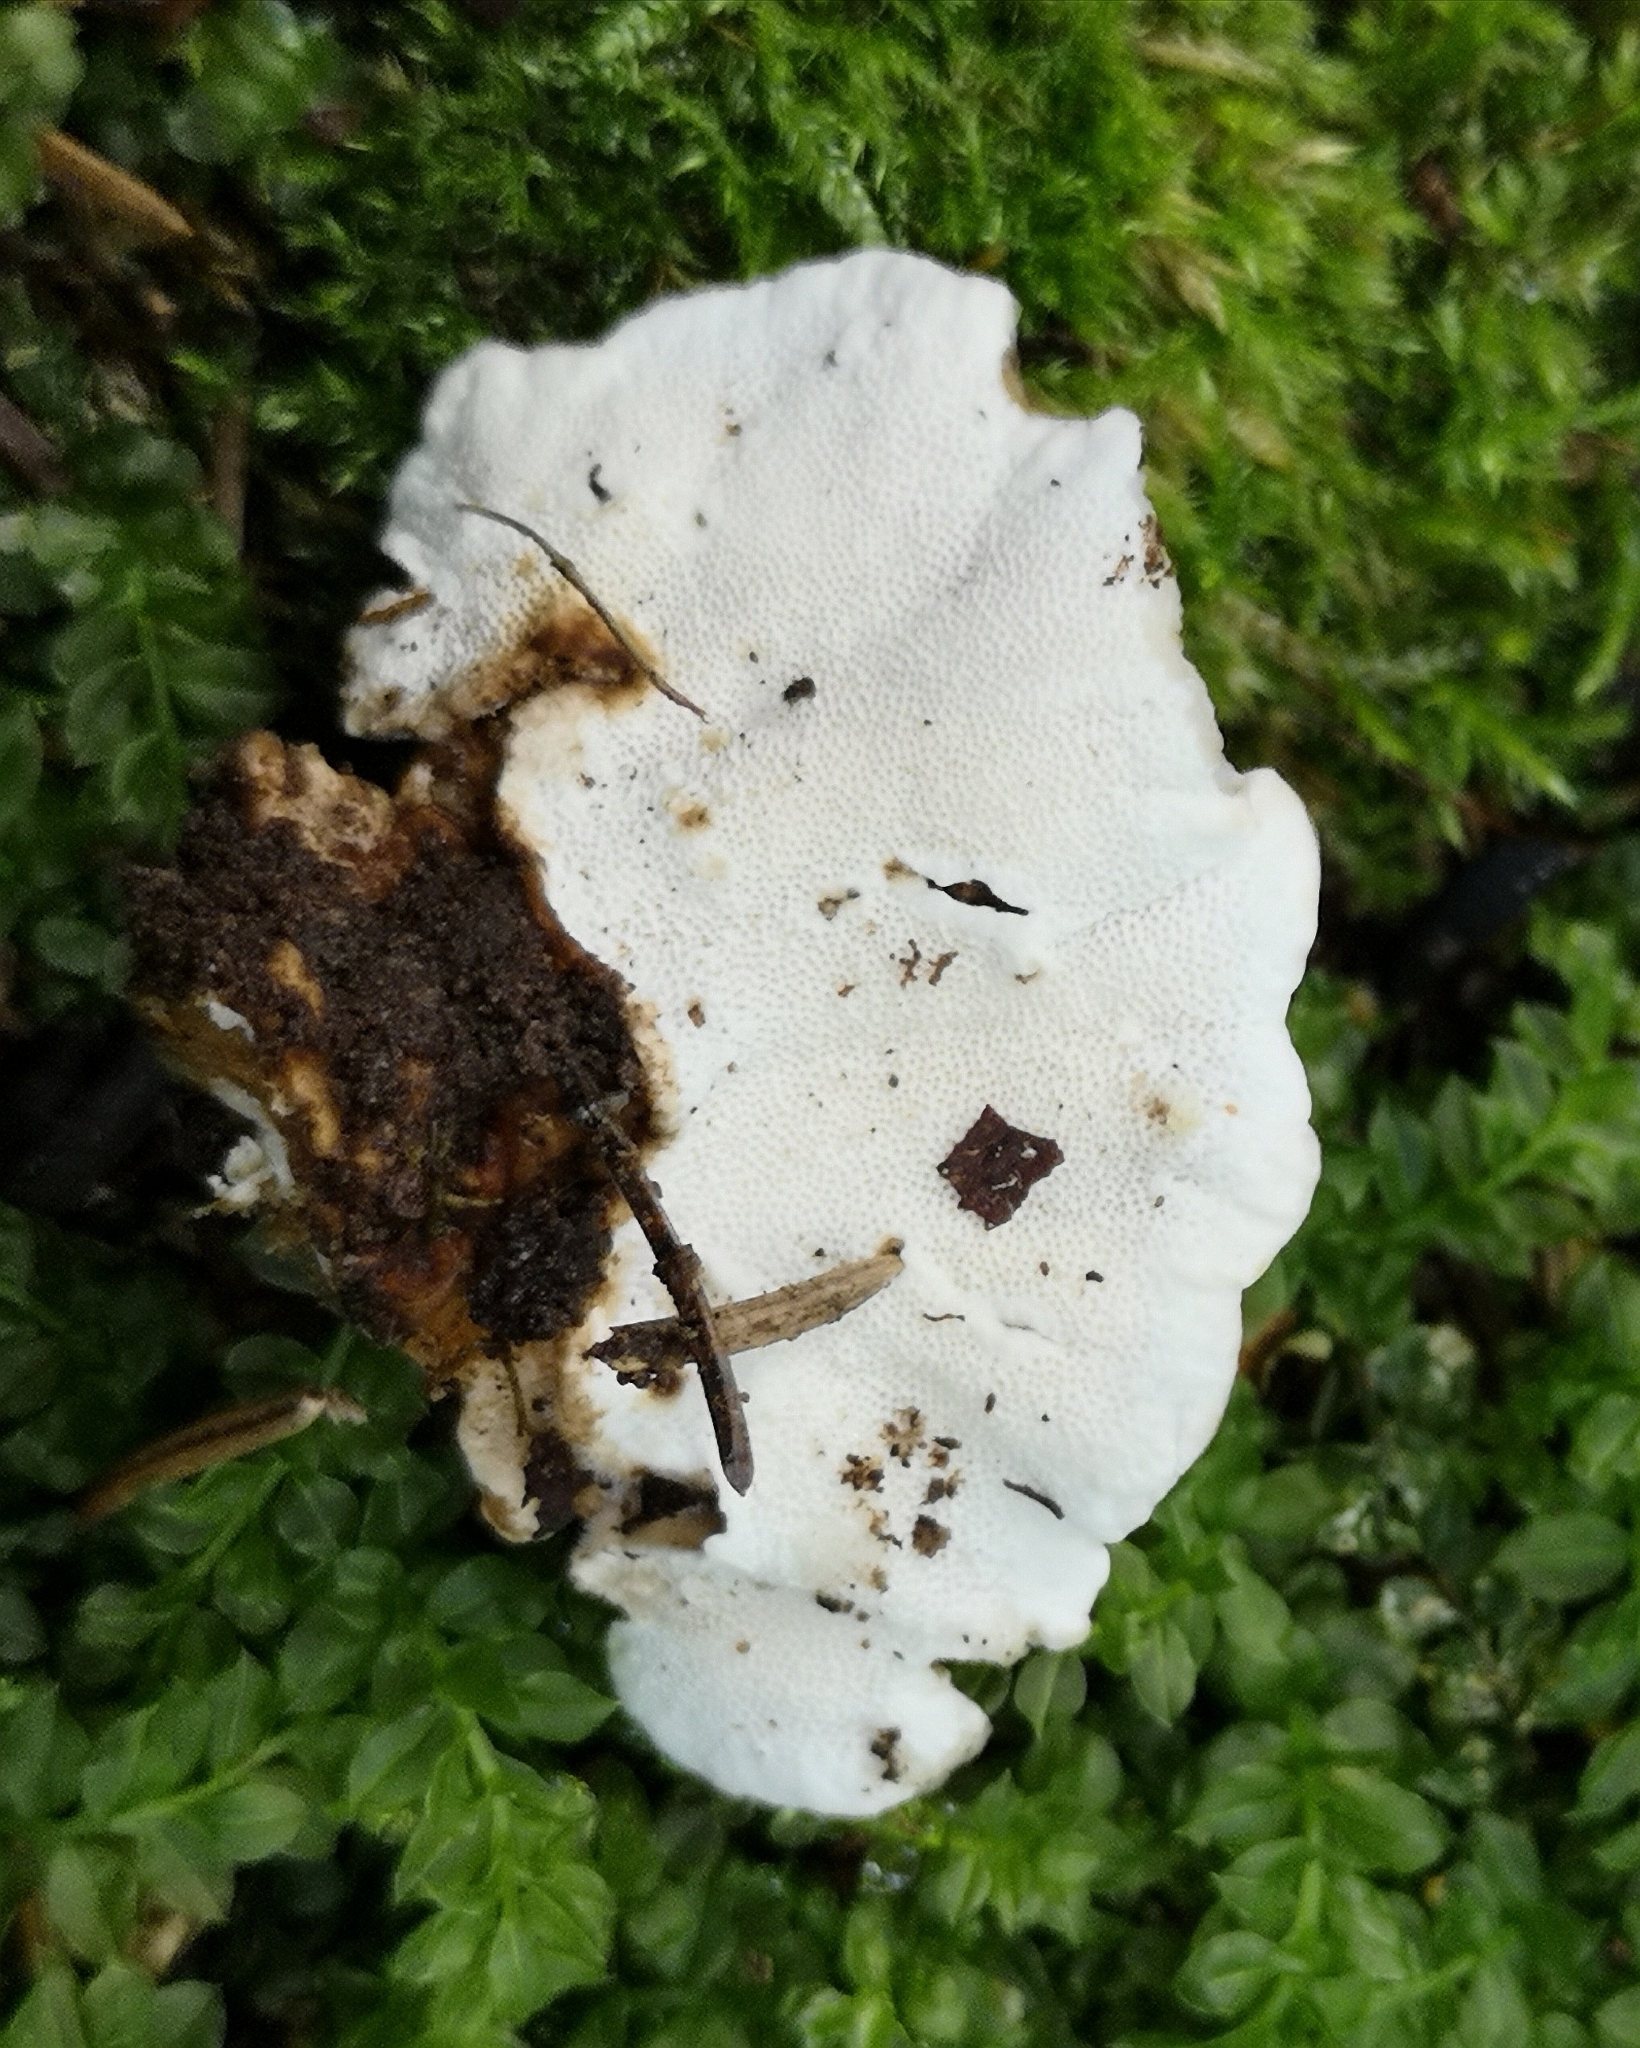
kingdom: Fungi
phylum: Basidiomycota
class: Agaricomycetes
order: Polyporales
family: Polyporaceae
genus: Trametes
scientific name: Trametes versicolor
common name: Turkeytail
